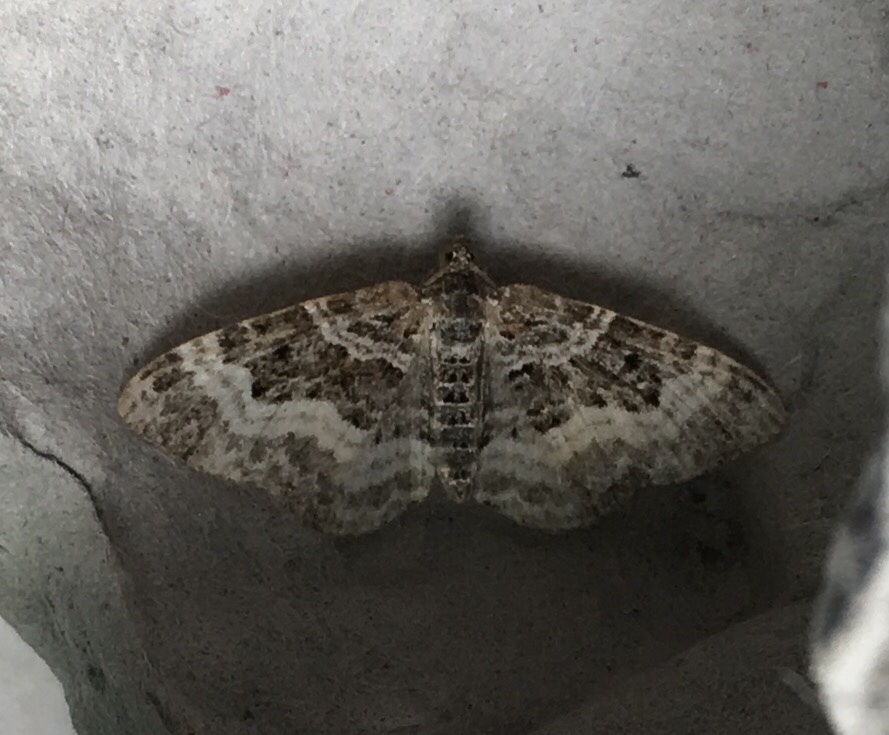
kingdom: Animalia
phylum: Arthropoda
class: Insecta
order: Lepidoptera
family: Geometridae
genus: Epirrhoe
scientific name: Epirrhoe alternata
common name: Common carpet
